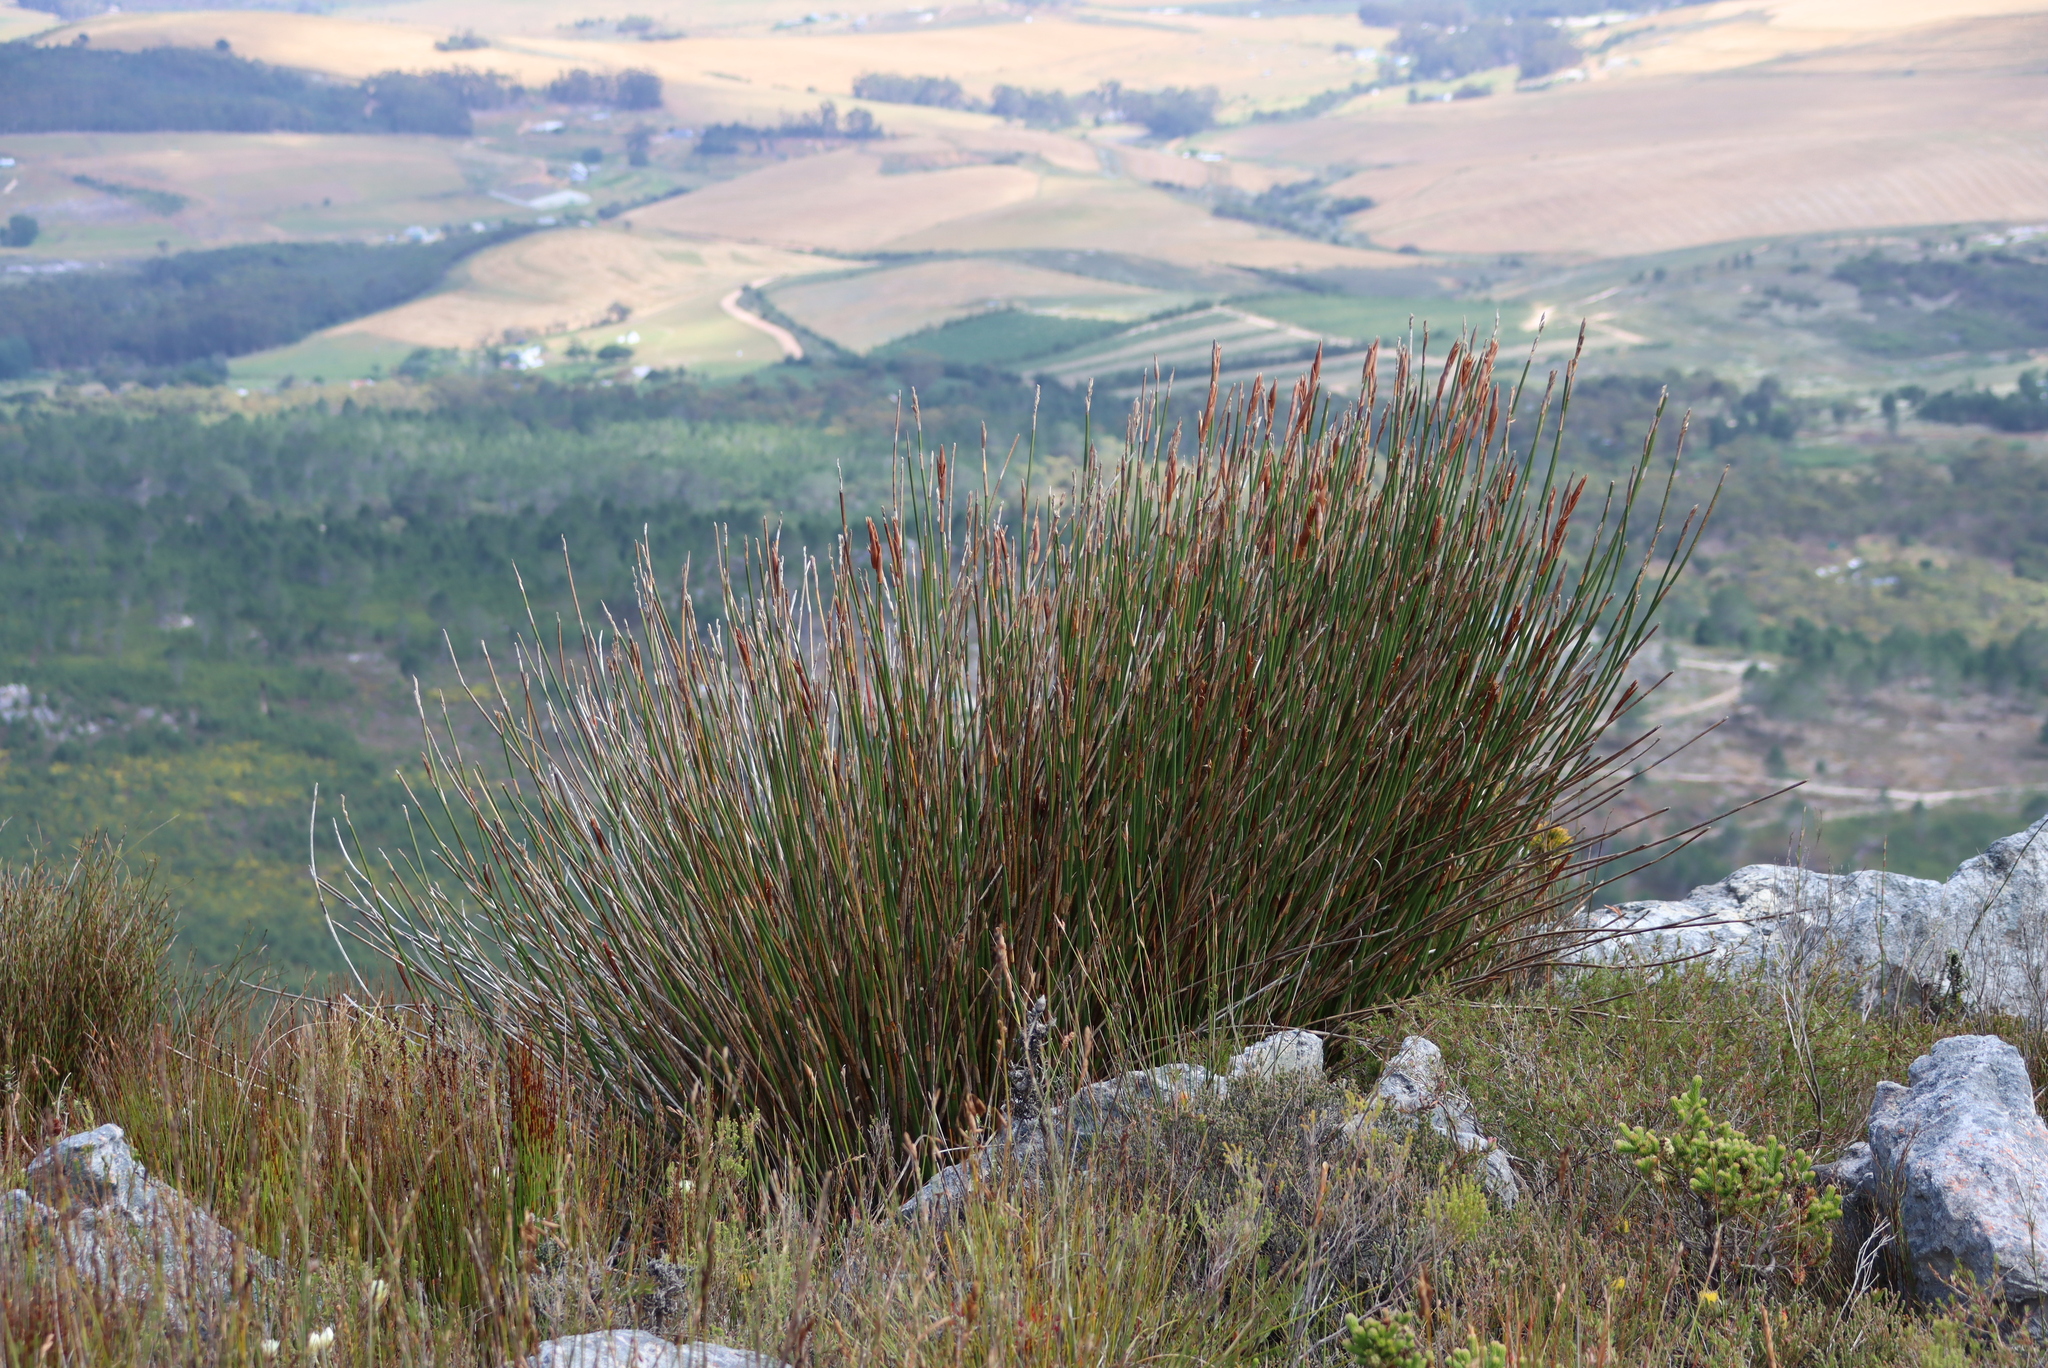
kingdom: Plantae
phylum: Tracheophyta
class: Liliopsida
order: Poales
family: Restionaceae
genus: Ceratocaryum
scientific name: Ceratocaryum caespitosum
